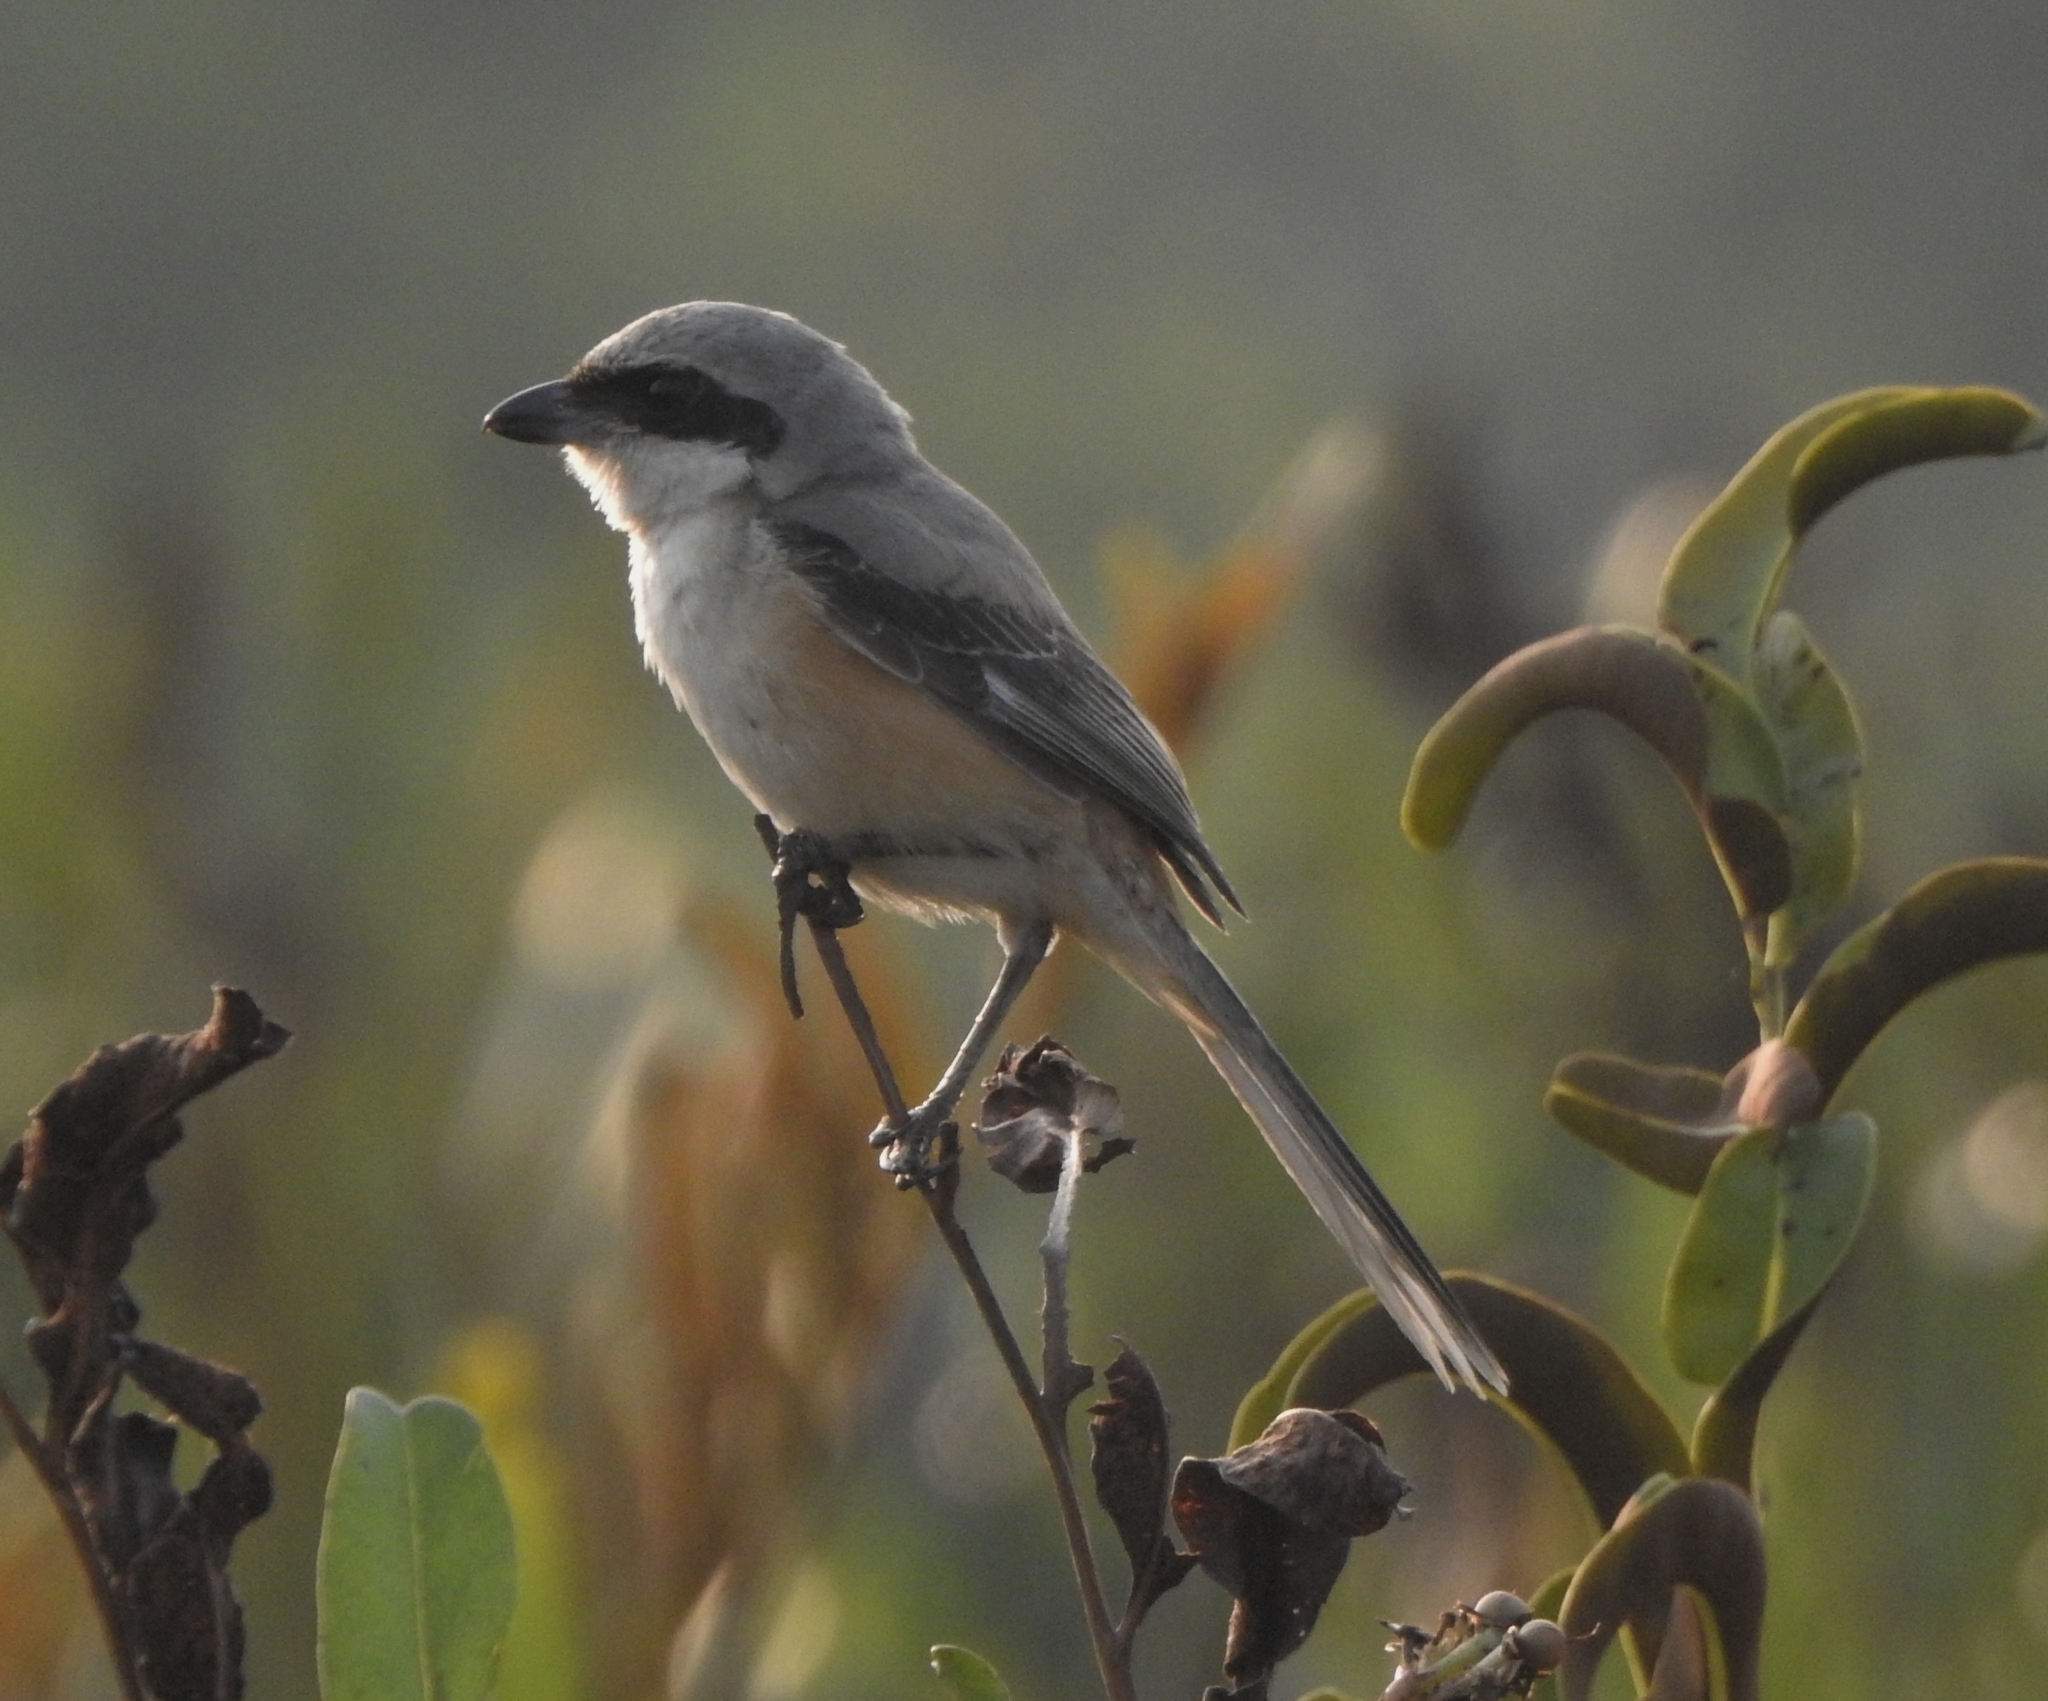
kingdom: Animalia
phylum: Chordata
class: Aves
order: Passeriformes
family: Laniidae
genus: Lanius
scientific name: Lanius schach
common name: Long-tailed shrike
